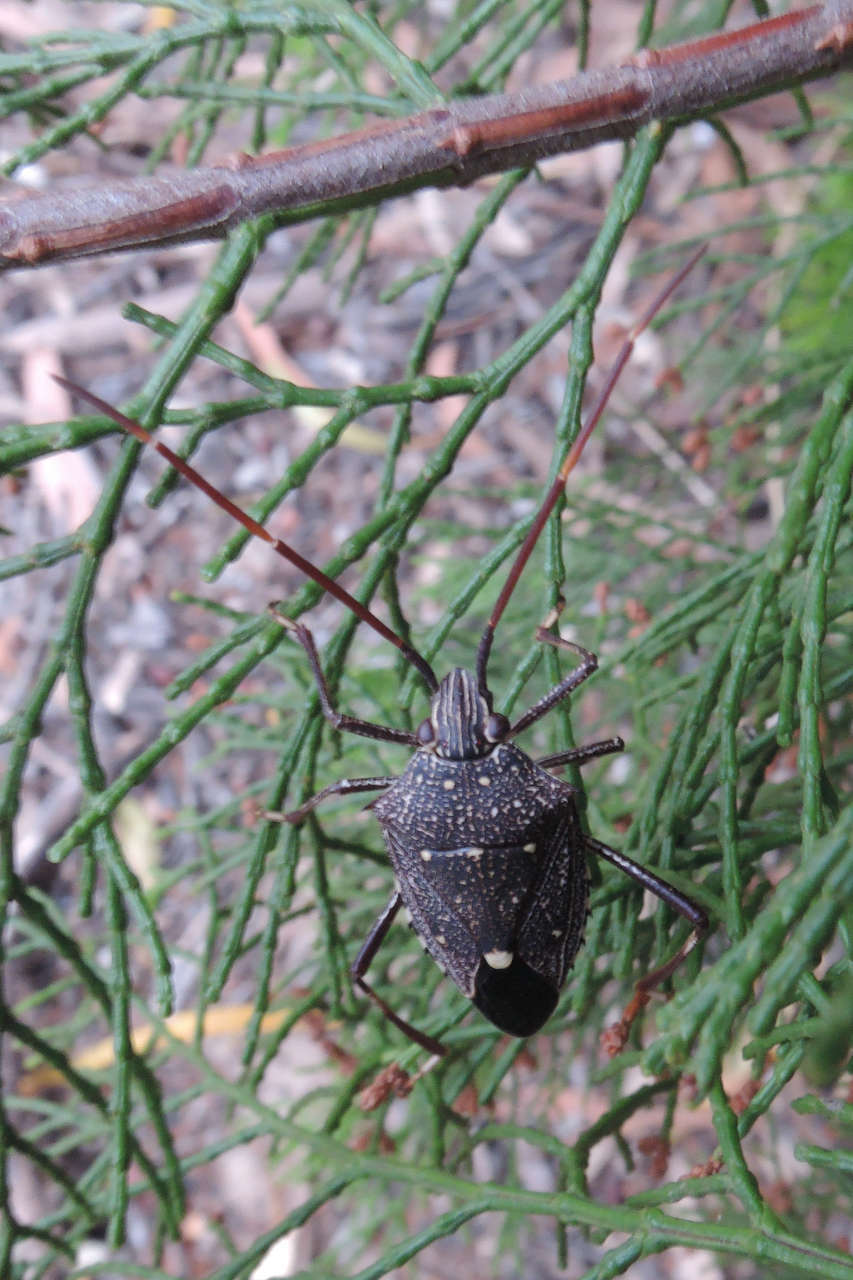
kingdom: Animalia
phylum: Arthropoda
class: Insecta
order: Hemiptera
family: Pentatomidae
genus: Poecilometis
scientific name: Poecilometis fuscescens
